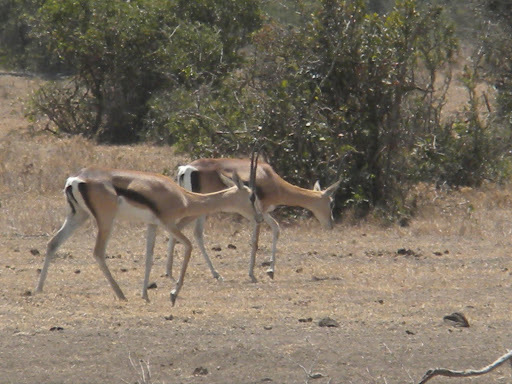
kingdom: Animalia
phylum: Chordata
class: Mammalia
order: Artiodactyla
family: Bovidae
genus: Nanger
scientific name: Nanger granti
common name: Grant's gazelle
